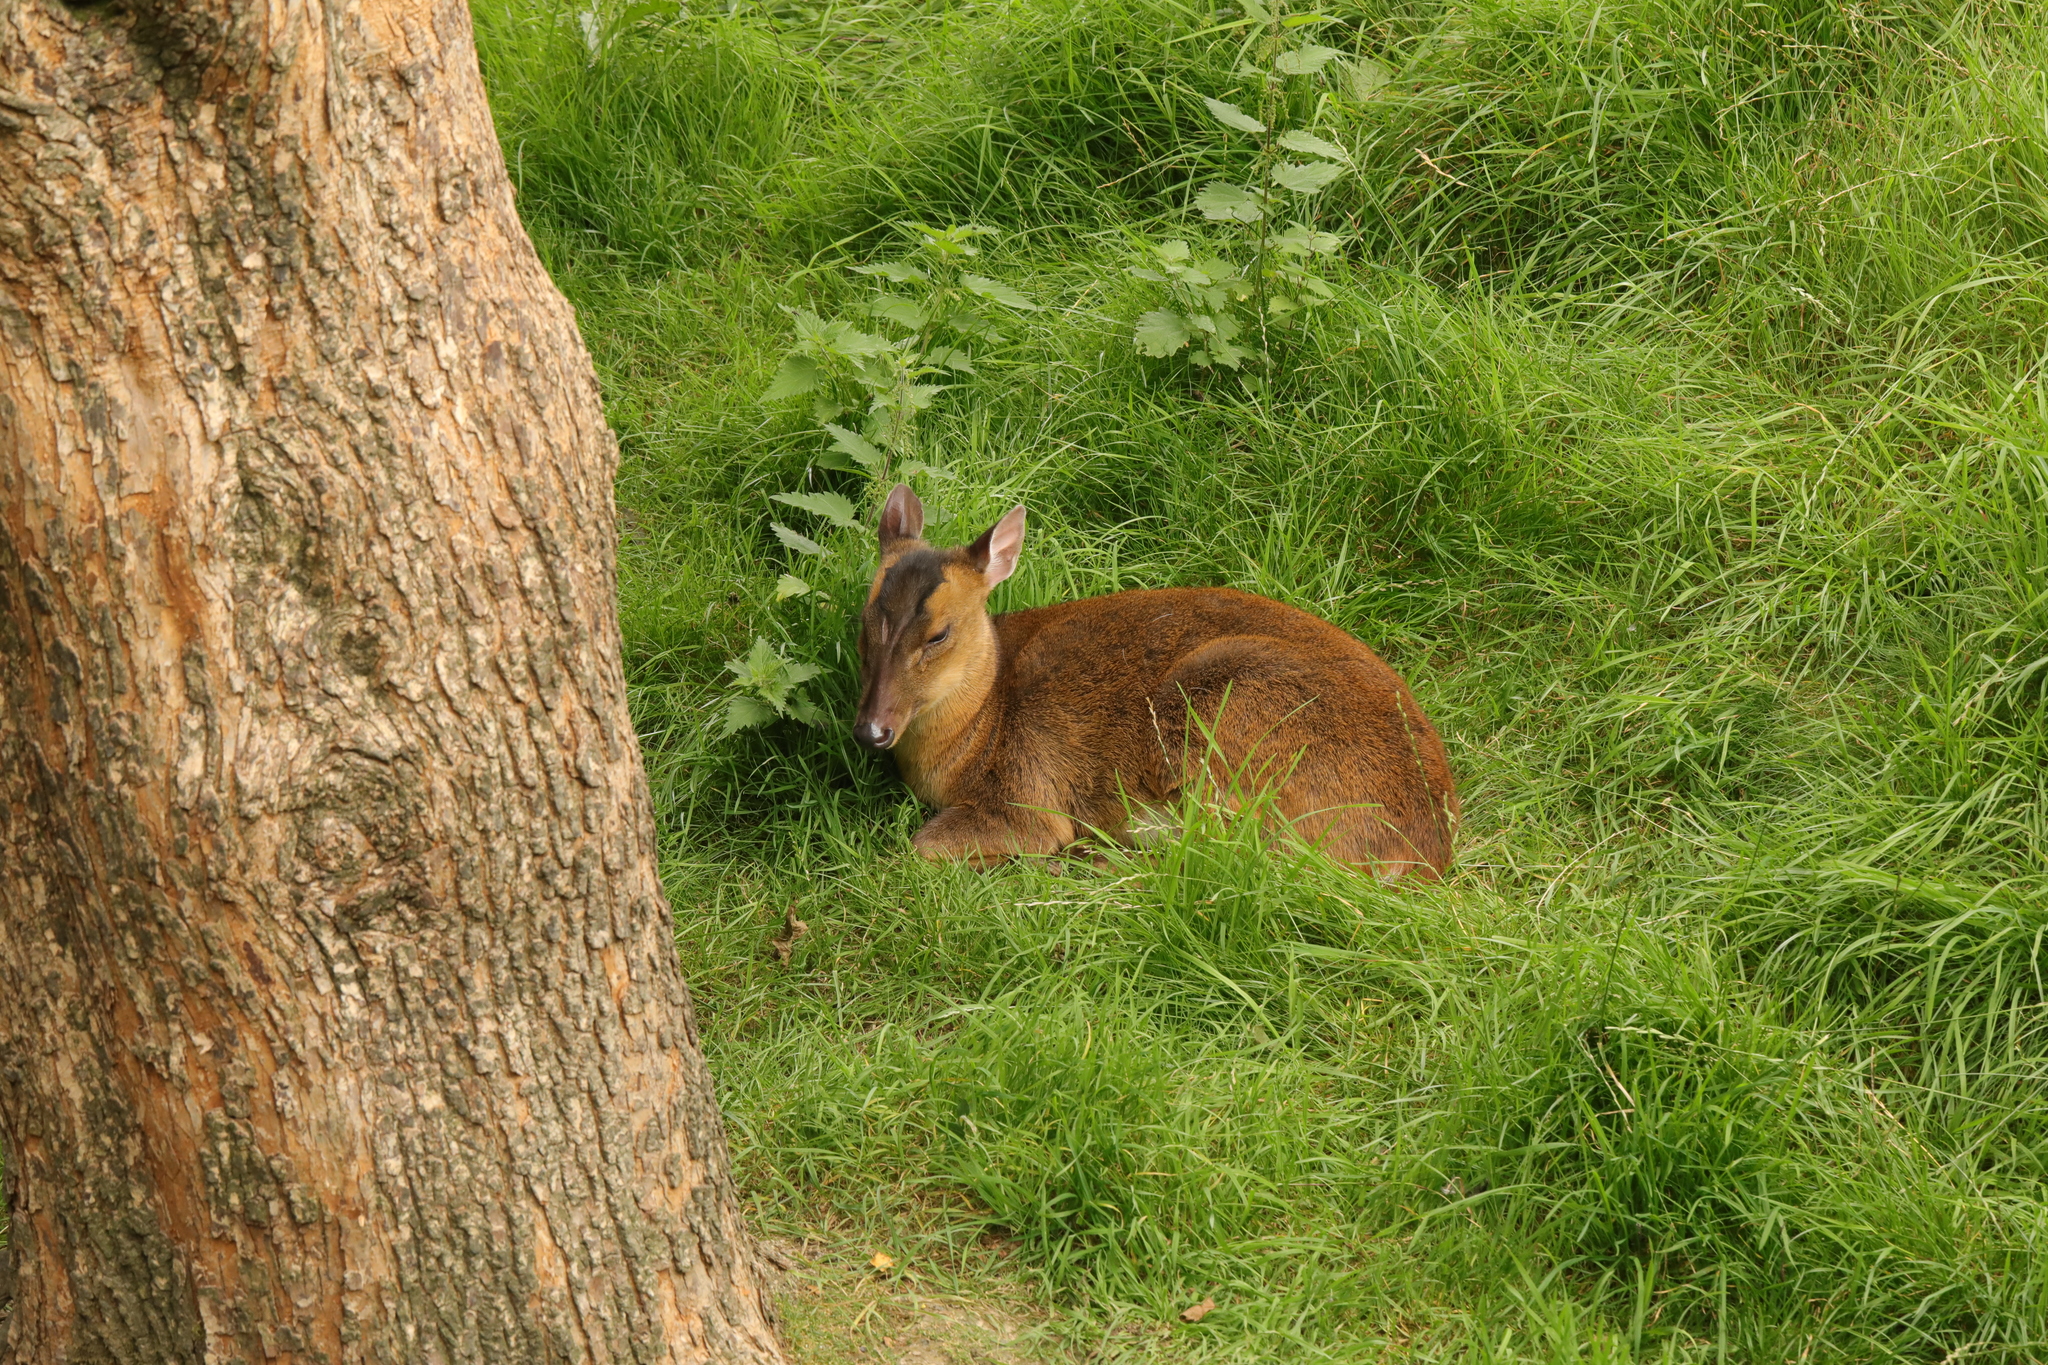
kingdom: Animalia
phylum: Chordata
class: Mammalia
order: Artiodactyla
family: Cervidae
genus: Muntiacus
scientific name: Muntiacus reevesi
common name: Reeves' muntjac
